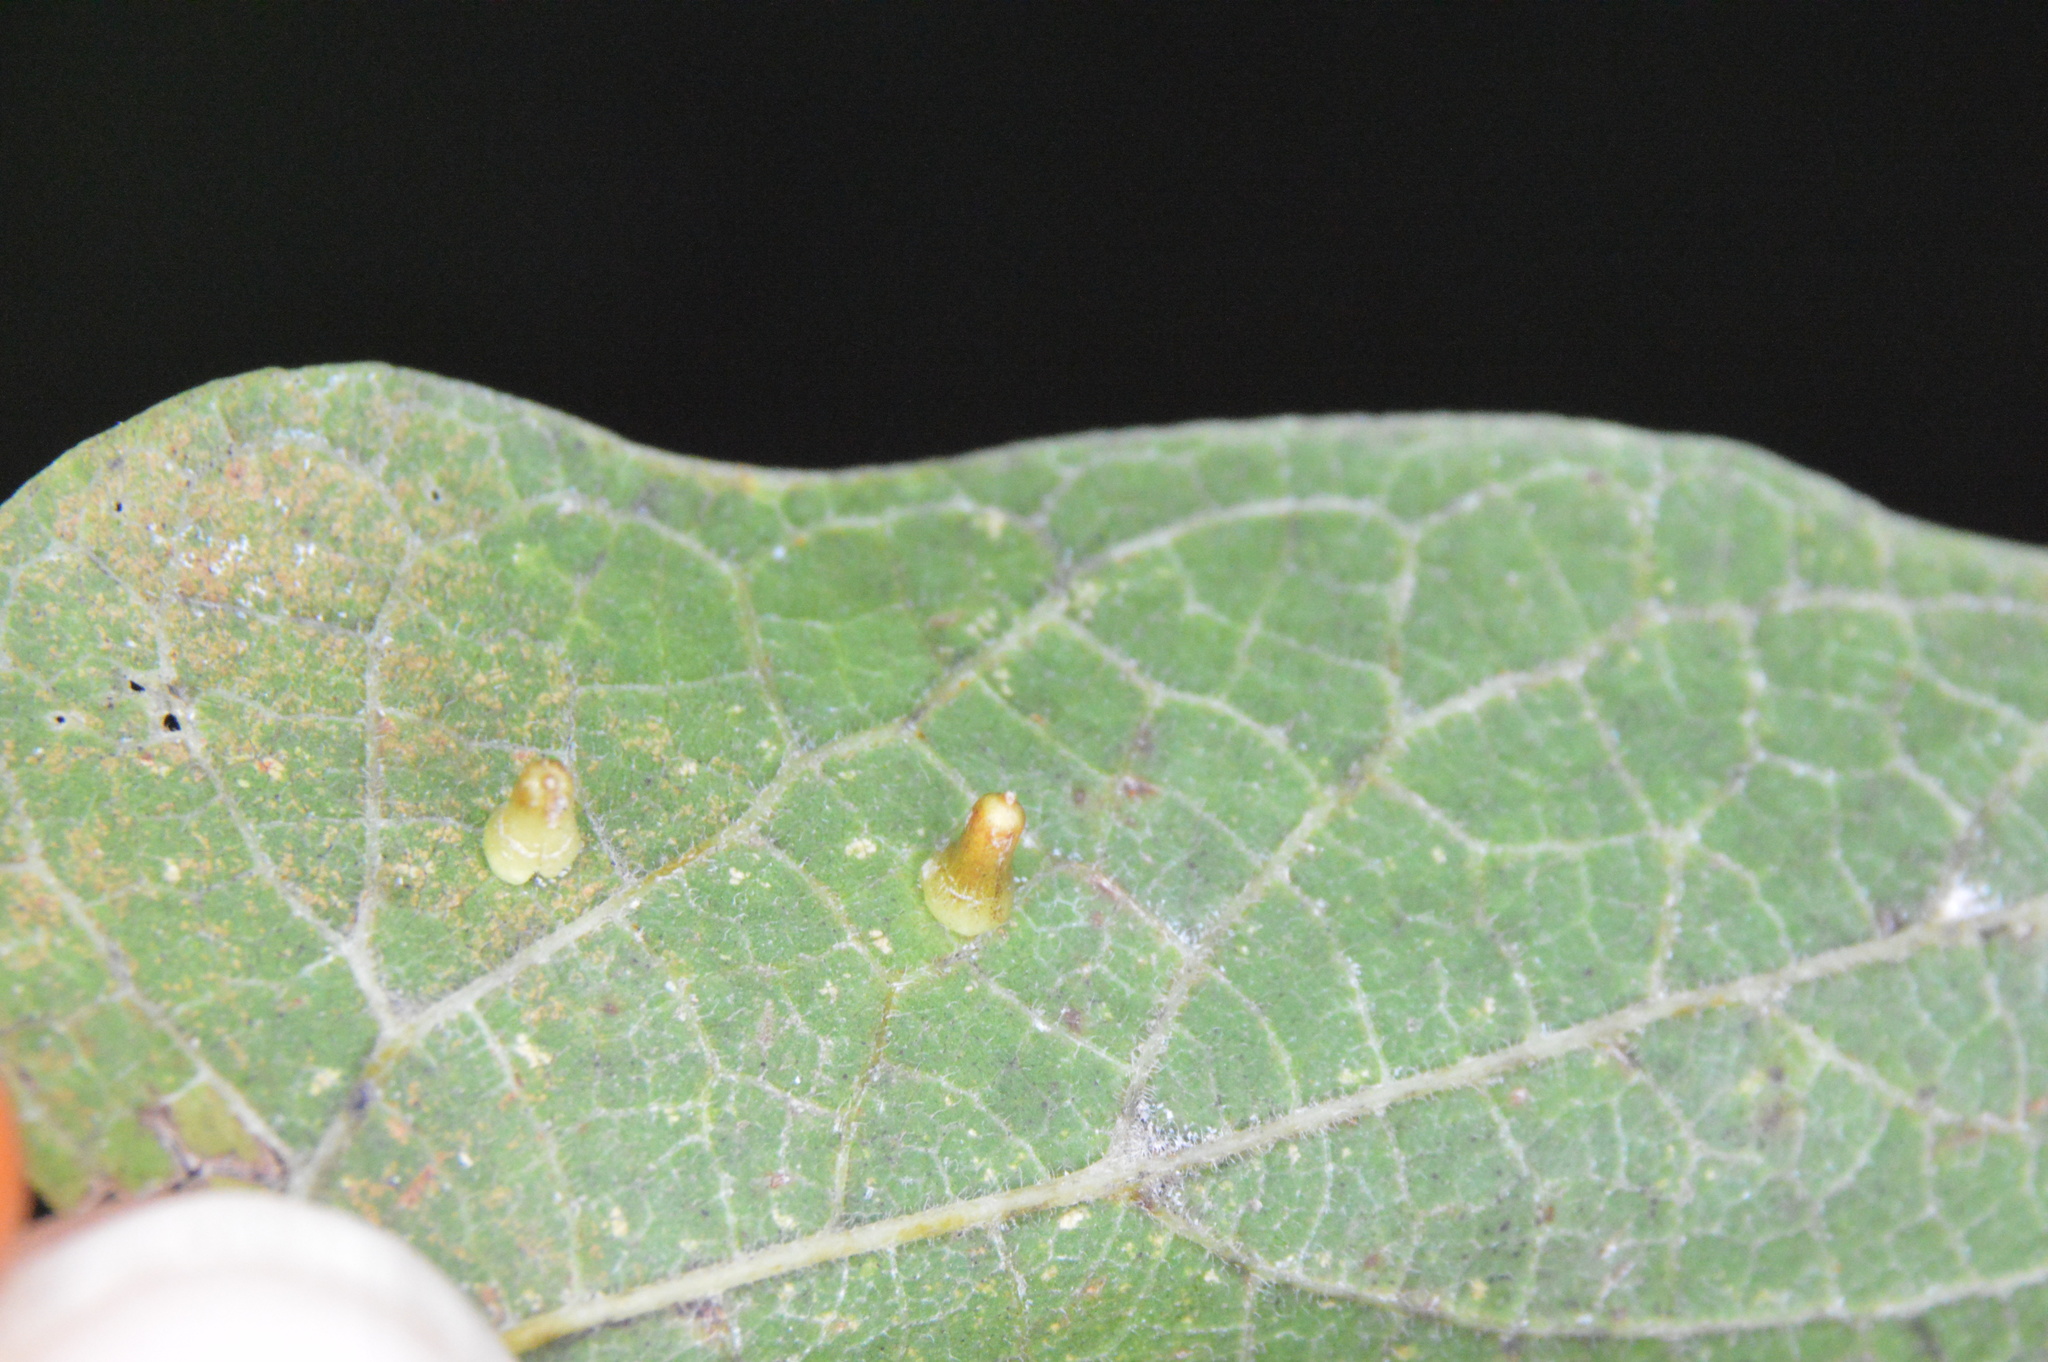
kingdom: Animalia
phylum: Arthropoda
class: Insecta
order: Diptera
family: Cecidomyiidae
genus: Celticecis
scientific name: Celticecis aciculata
